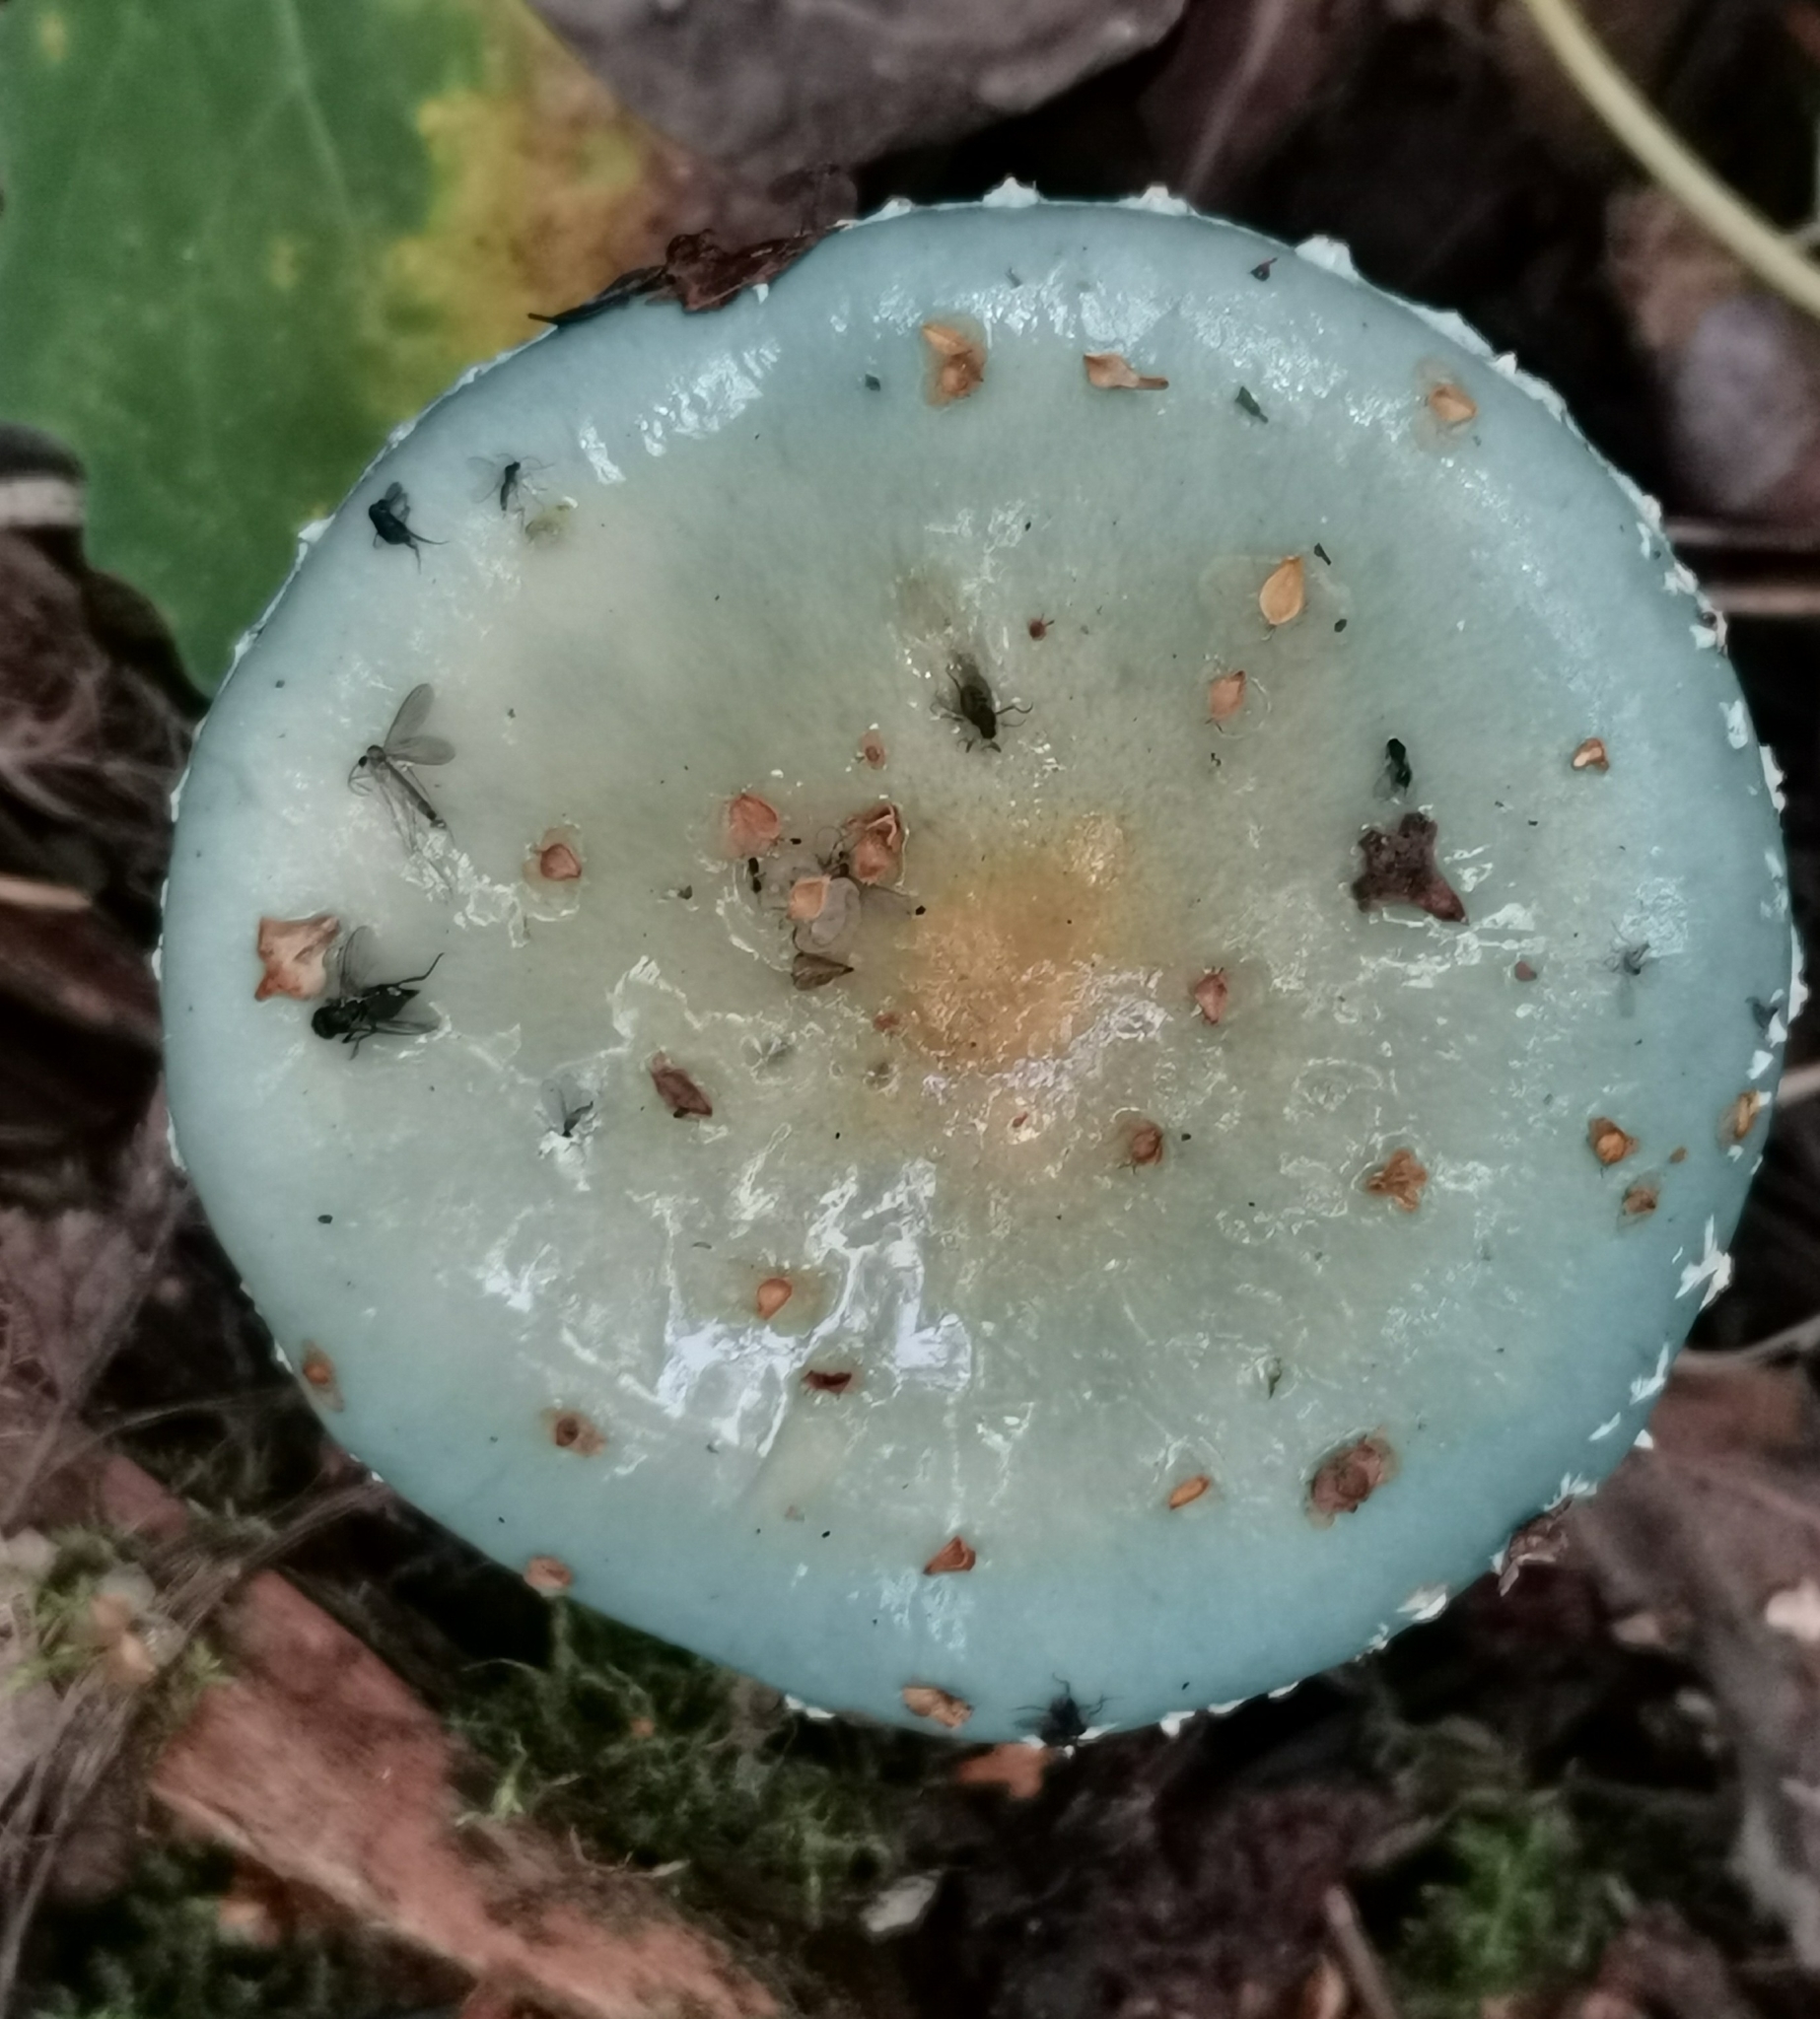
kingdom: Fungi
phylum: Basidiomycota
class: Agaricomycetes
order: Agaricales
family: Strophariaceae
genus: Stropharia
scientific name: Stropharia aeruginosa
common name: Verdigris roundhead
